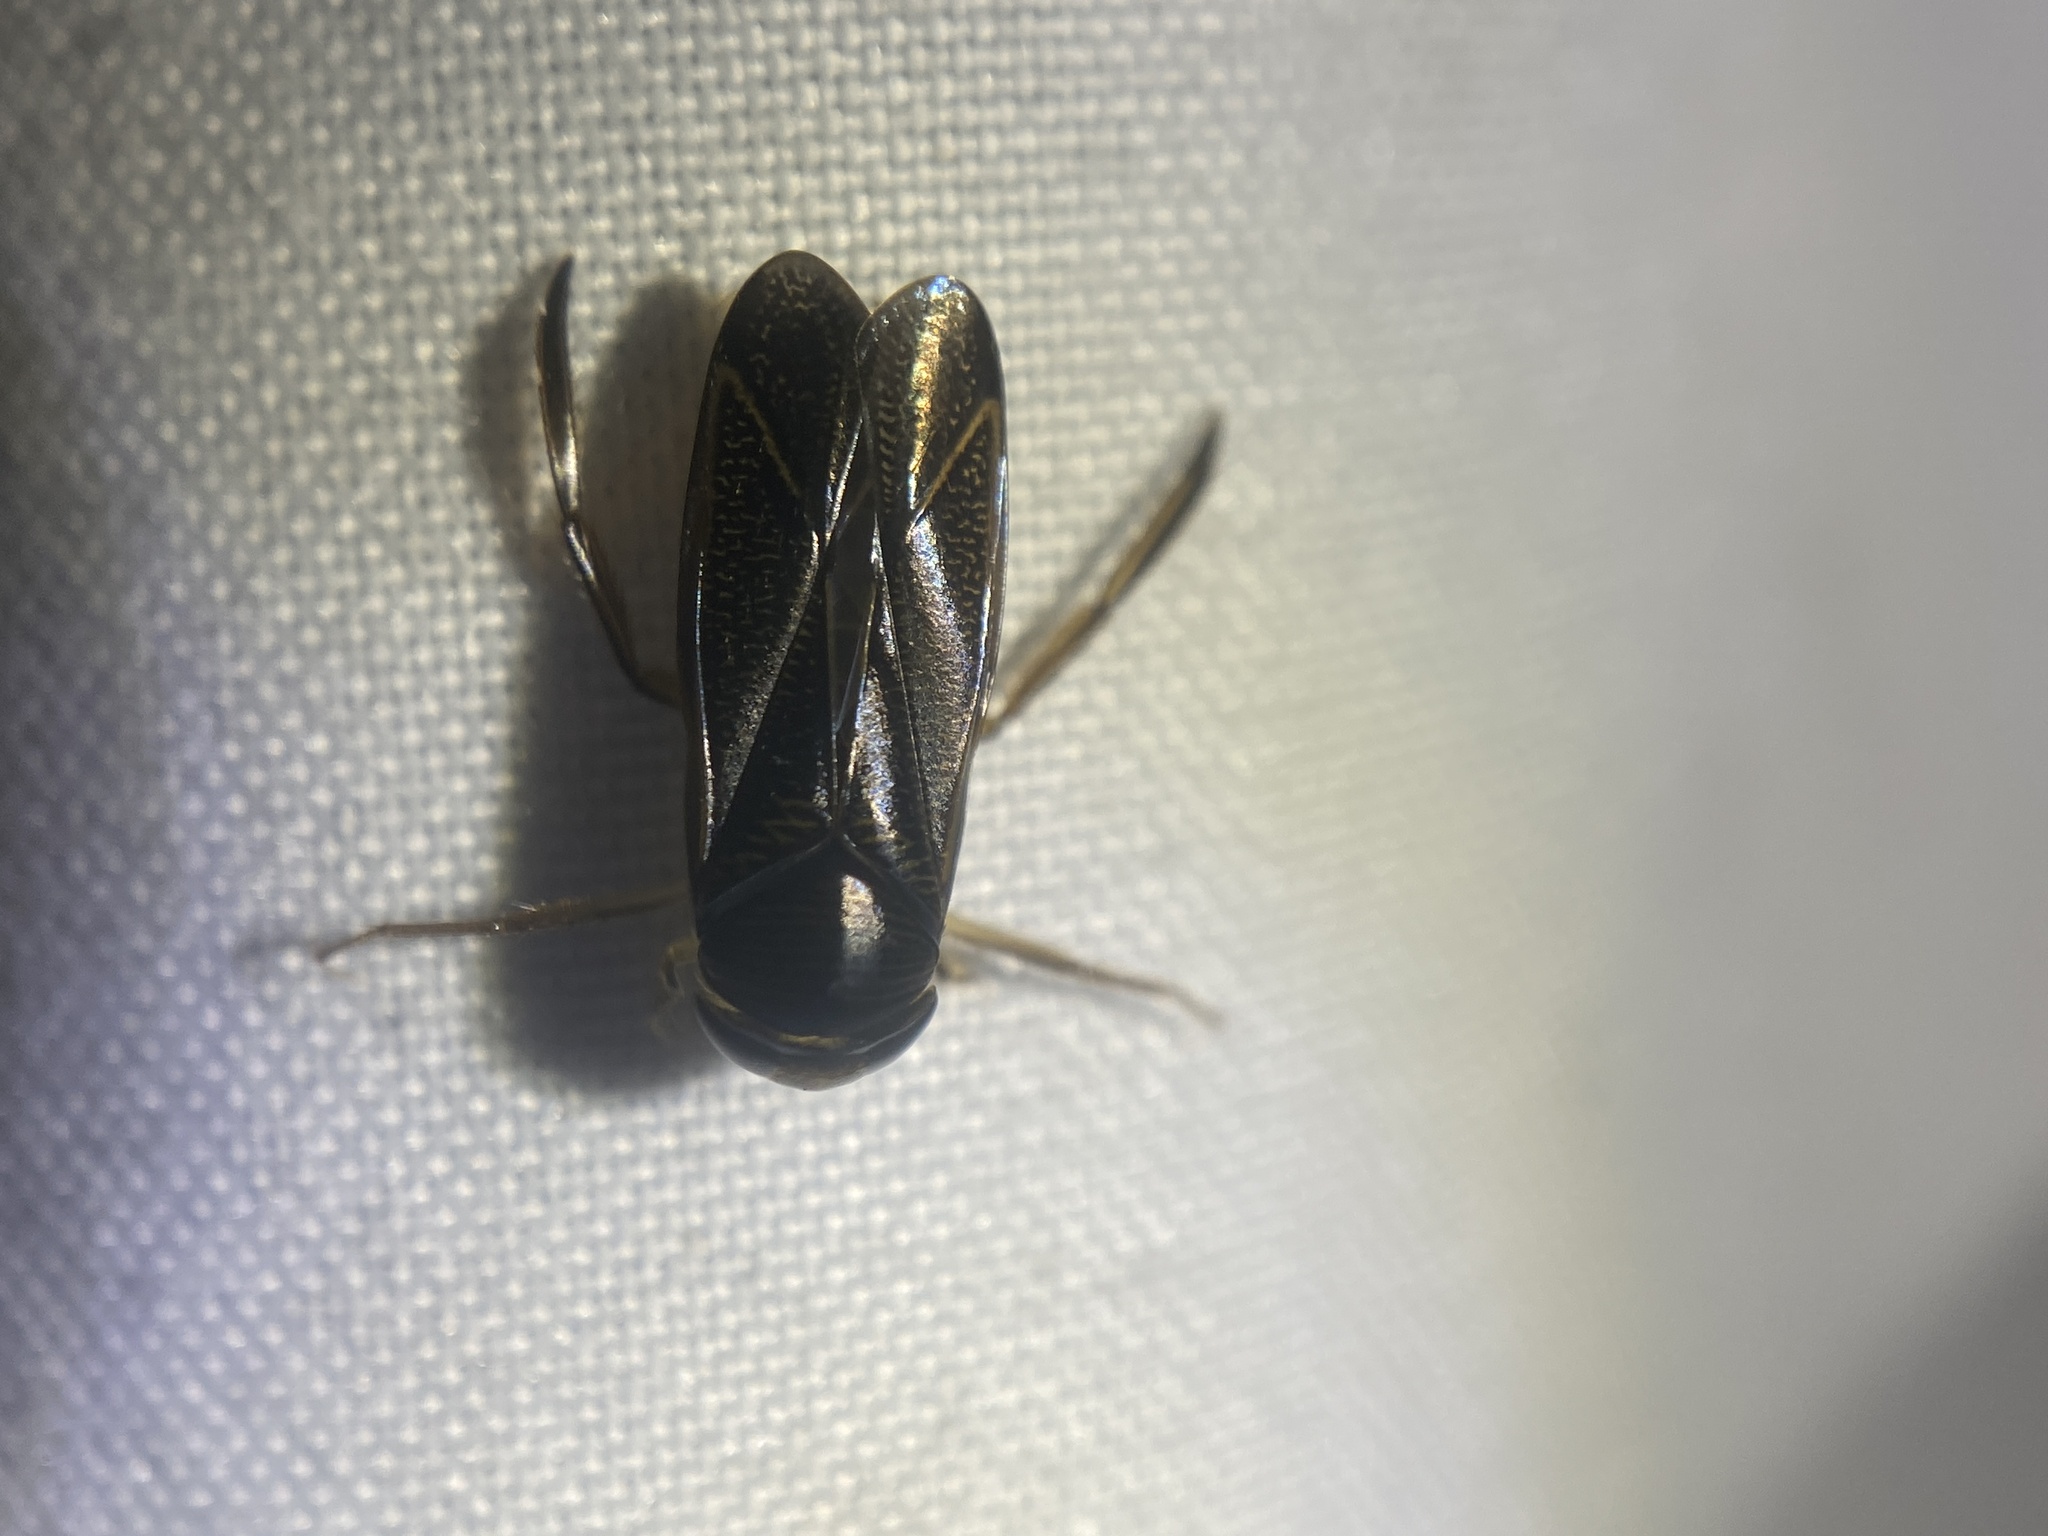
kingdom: Animalia
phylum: Arthropoda
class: Insecta
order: Hemiptera
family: Corixidae
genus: Hesperocorixa
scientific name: Hesperocorixa
